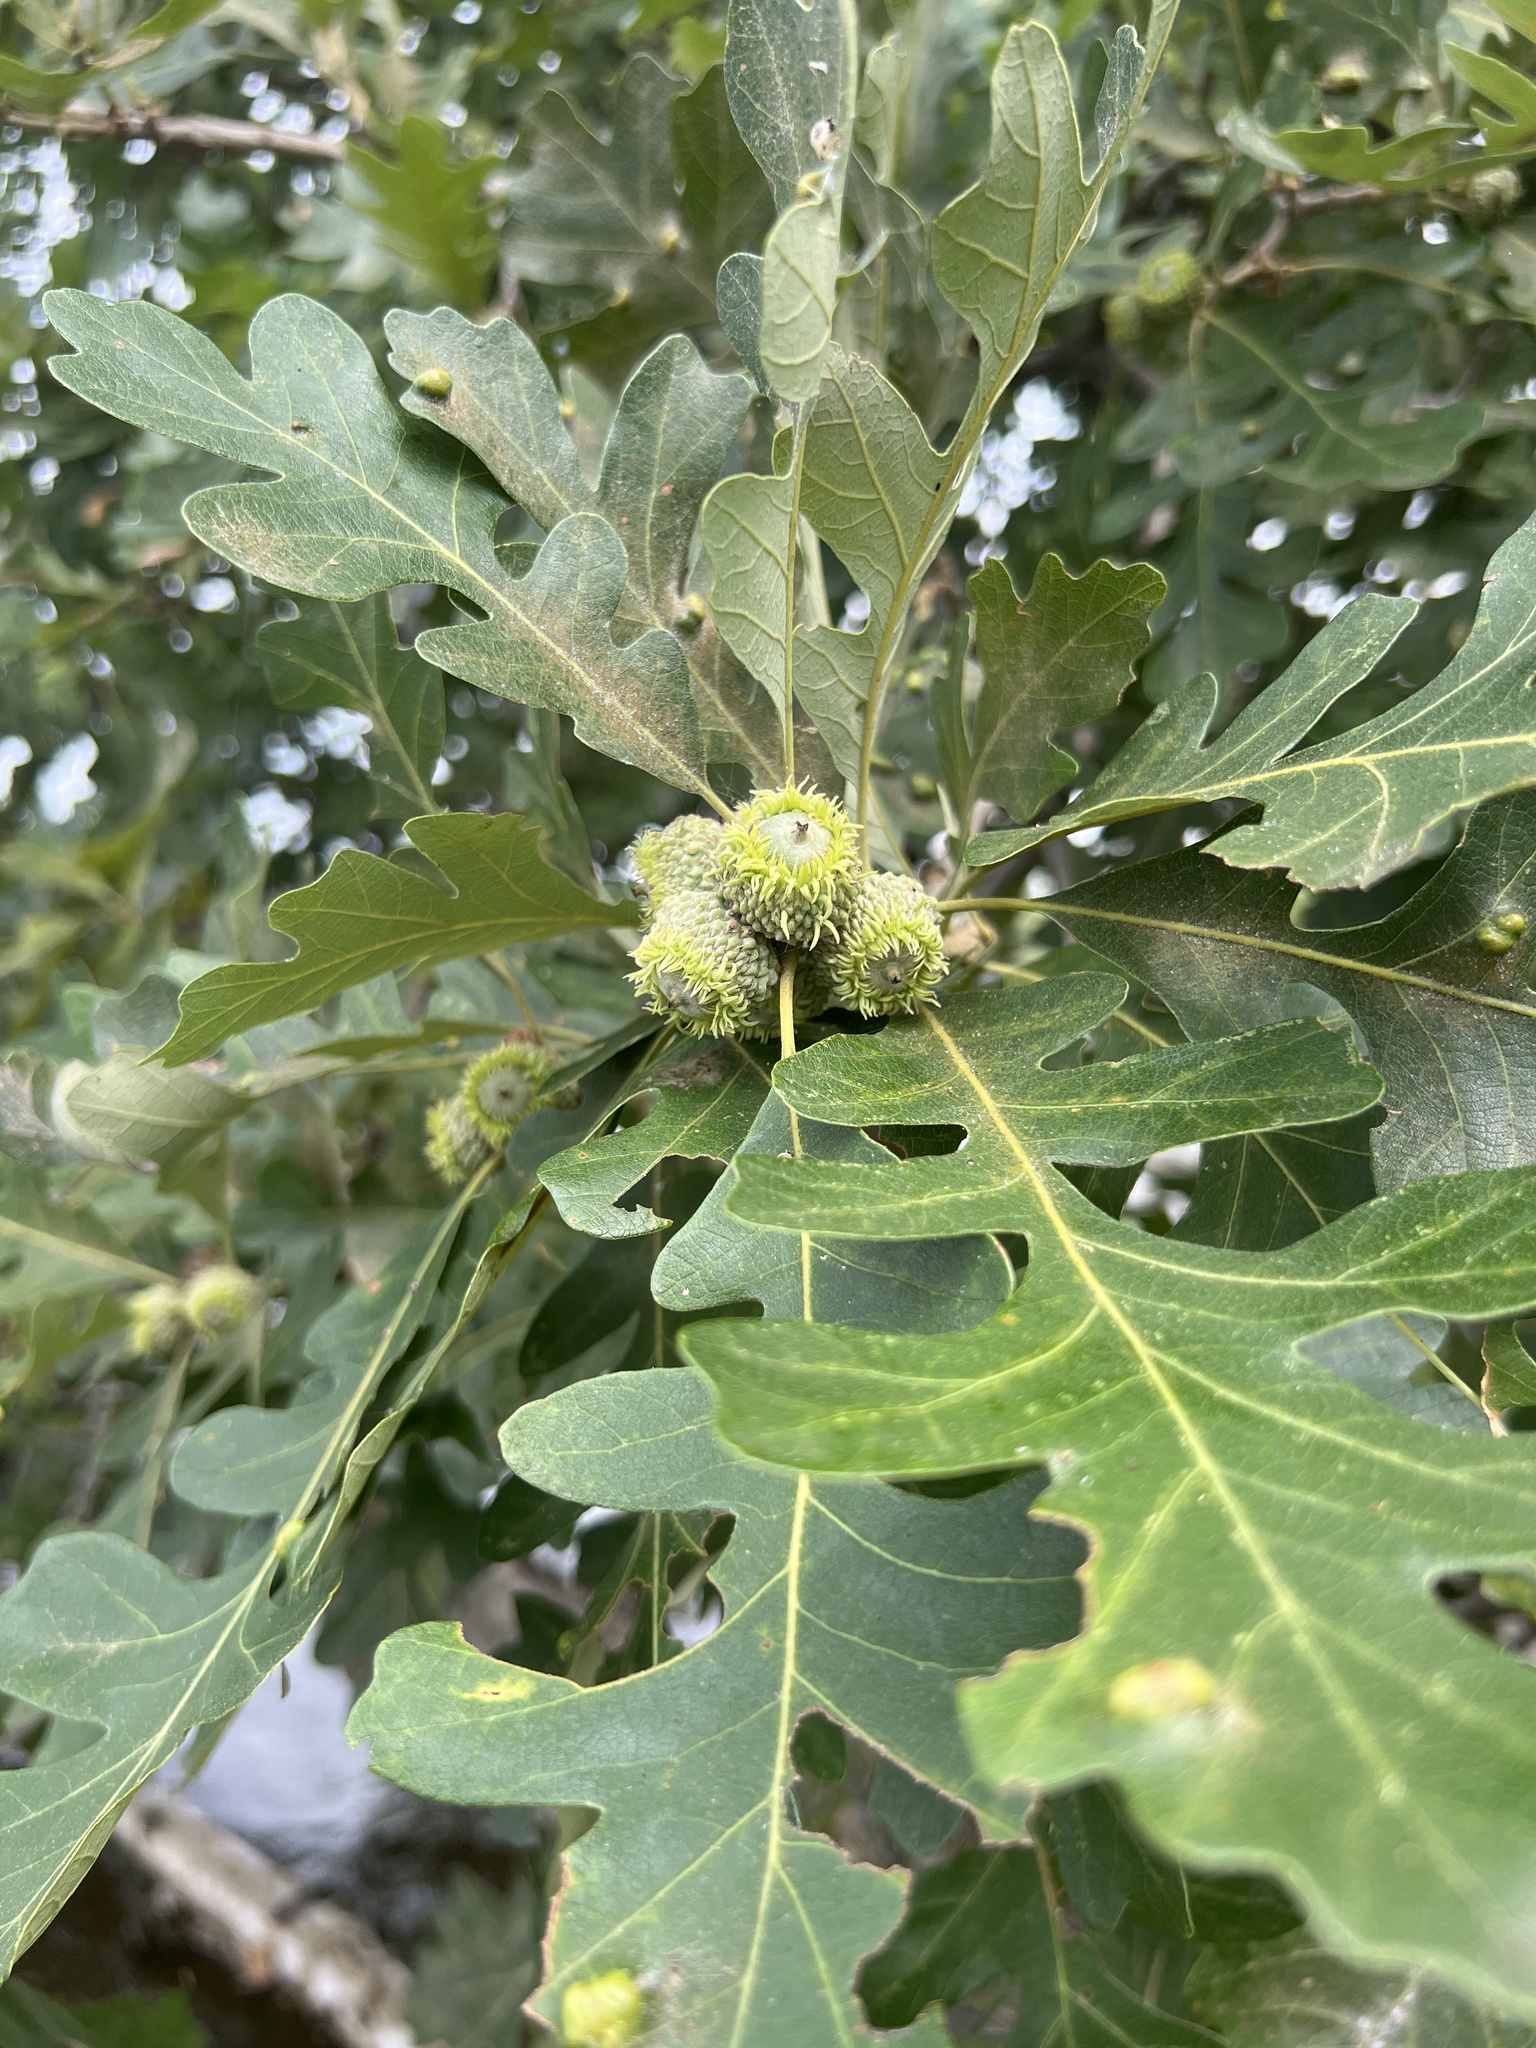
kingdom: Plantae
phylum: Tracheophyta
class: Magnoliopsida
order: Fagales
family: Fagaceae
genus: Quercus
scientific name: Quercus macrocarpa
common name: Bur oak
